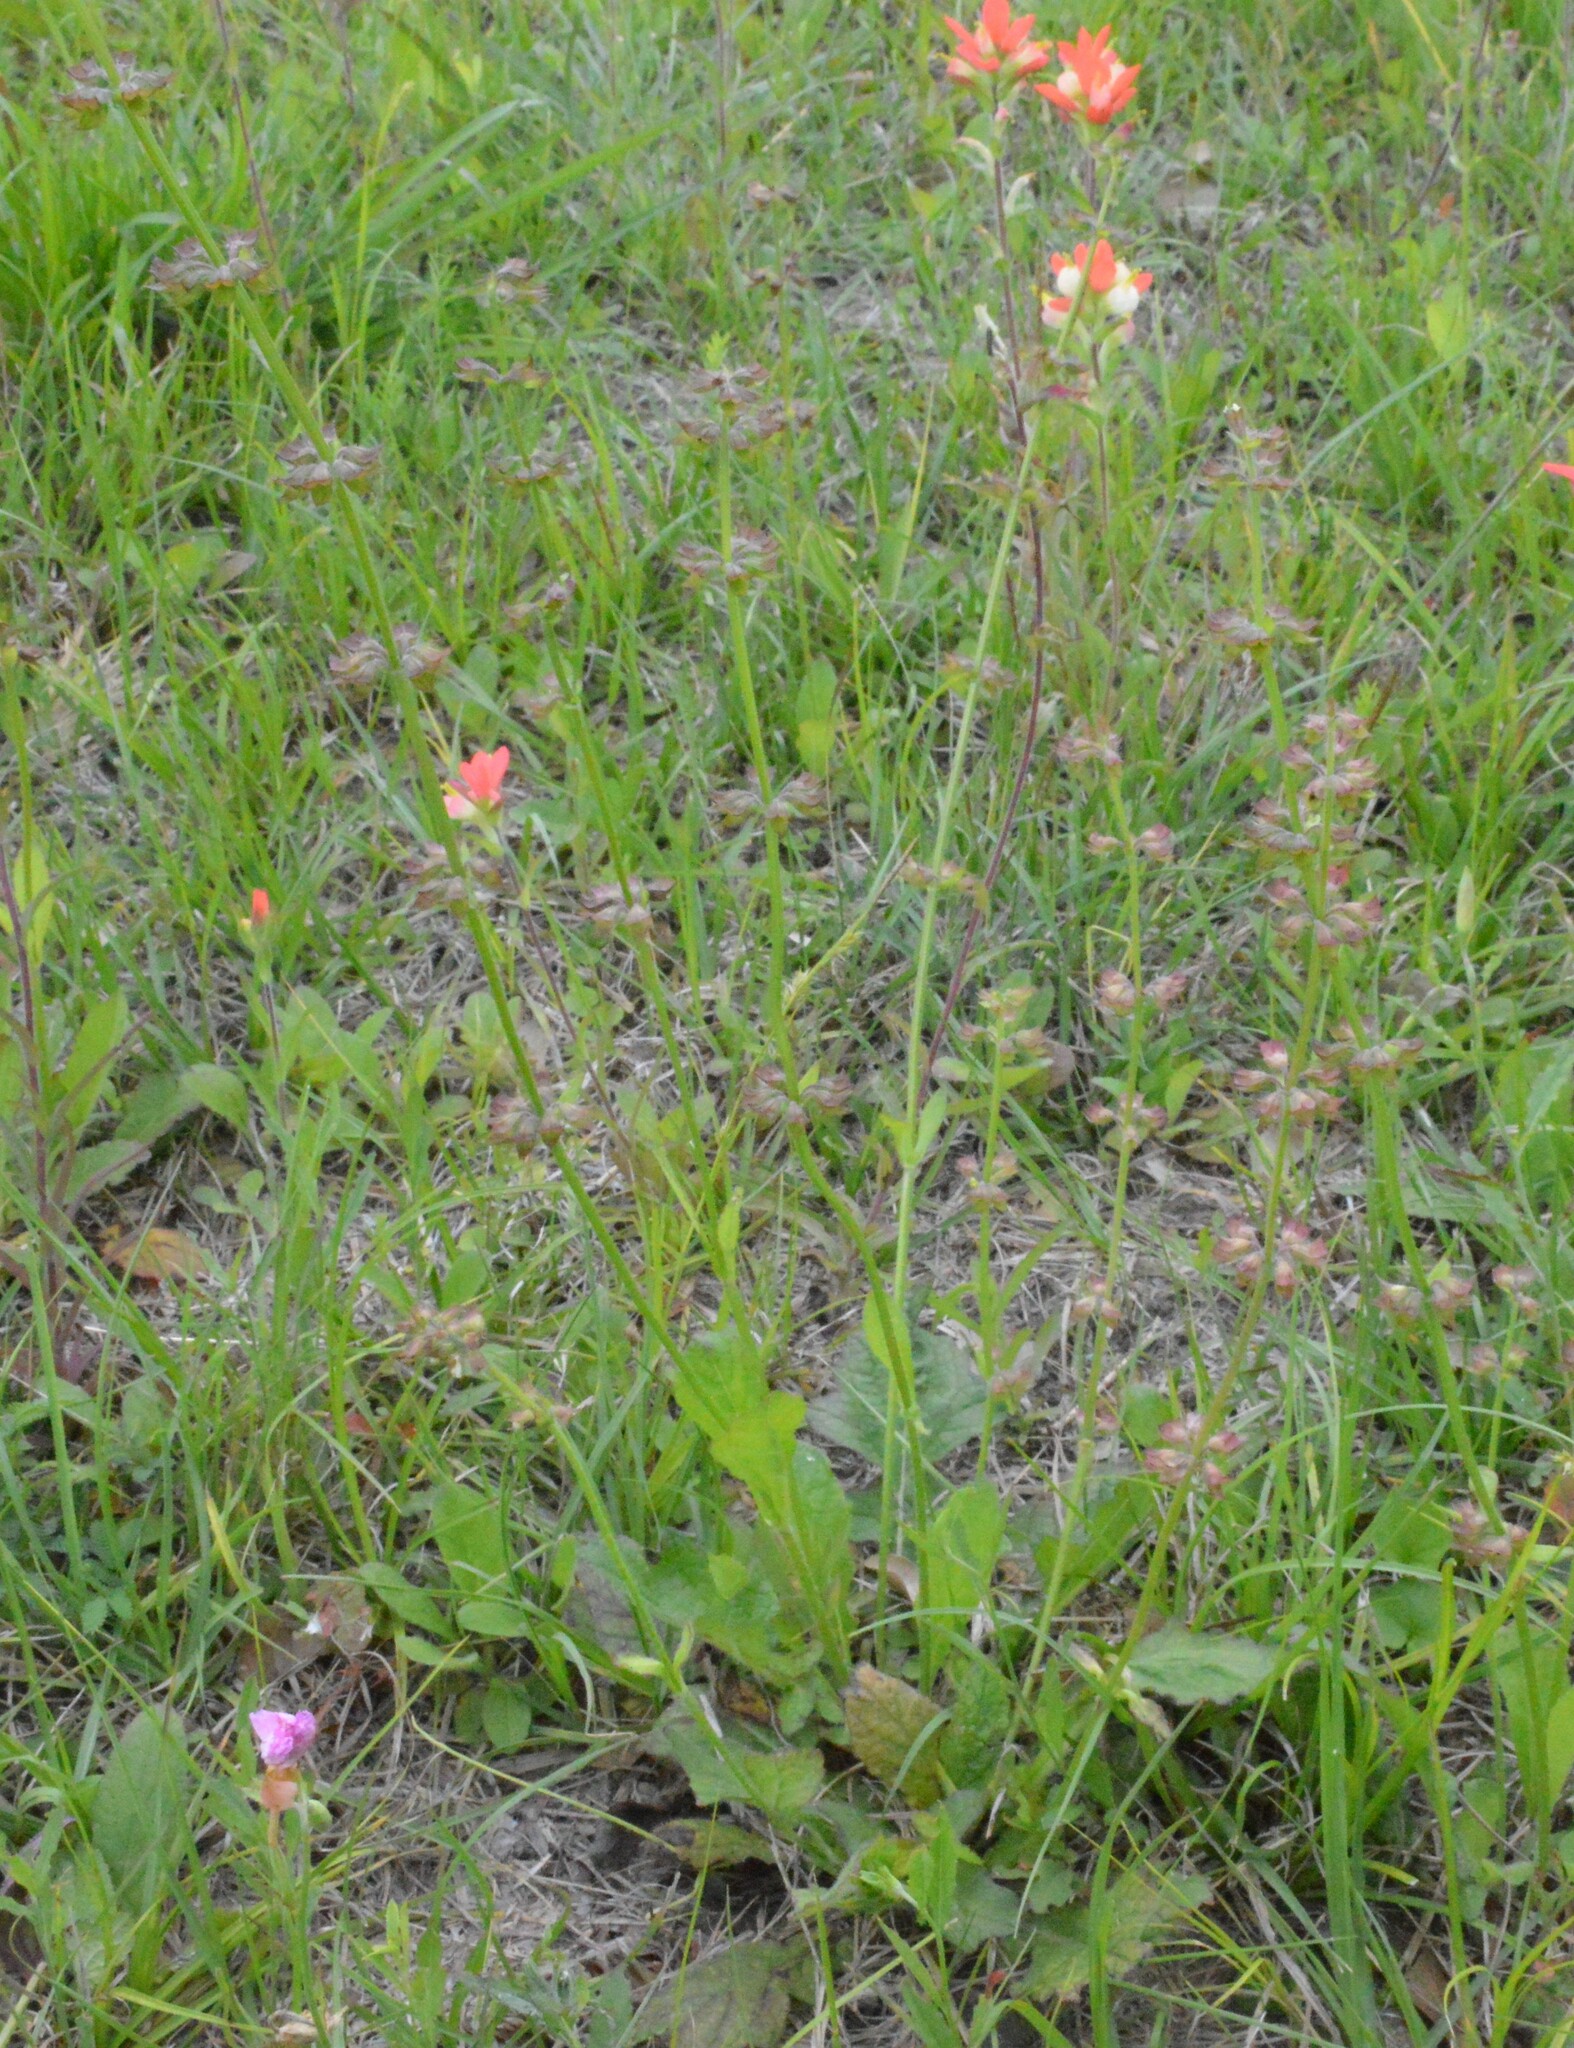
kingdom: Plantae
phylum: Tracheophyta
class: Magnoliopsida
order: Lamiales
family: Lamiaceae
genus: Salvia
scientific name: Salvia lyrata
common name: Cancerweed
